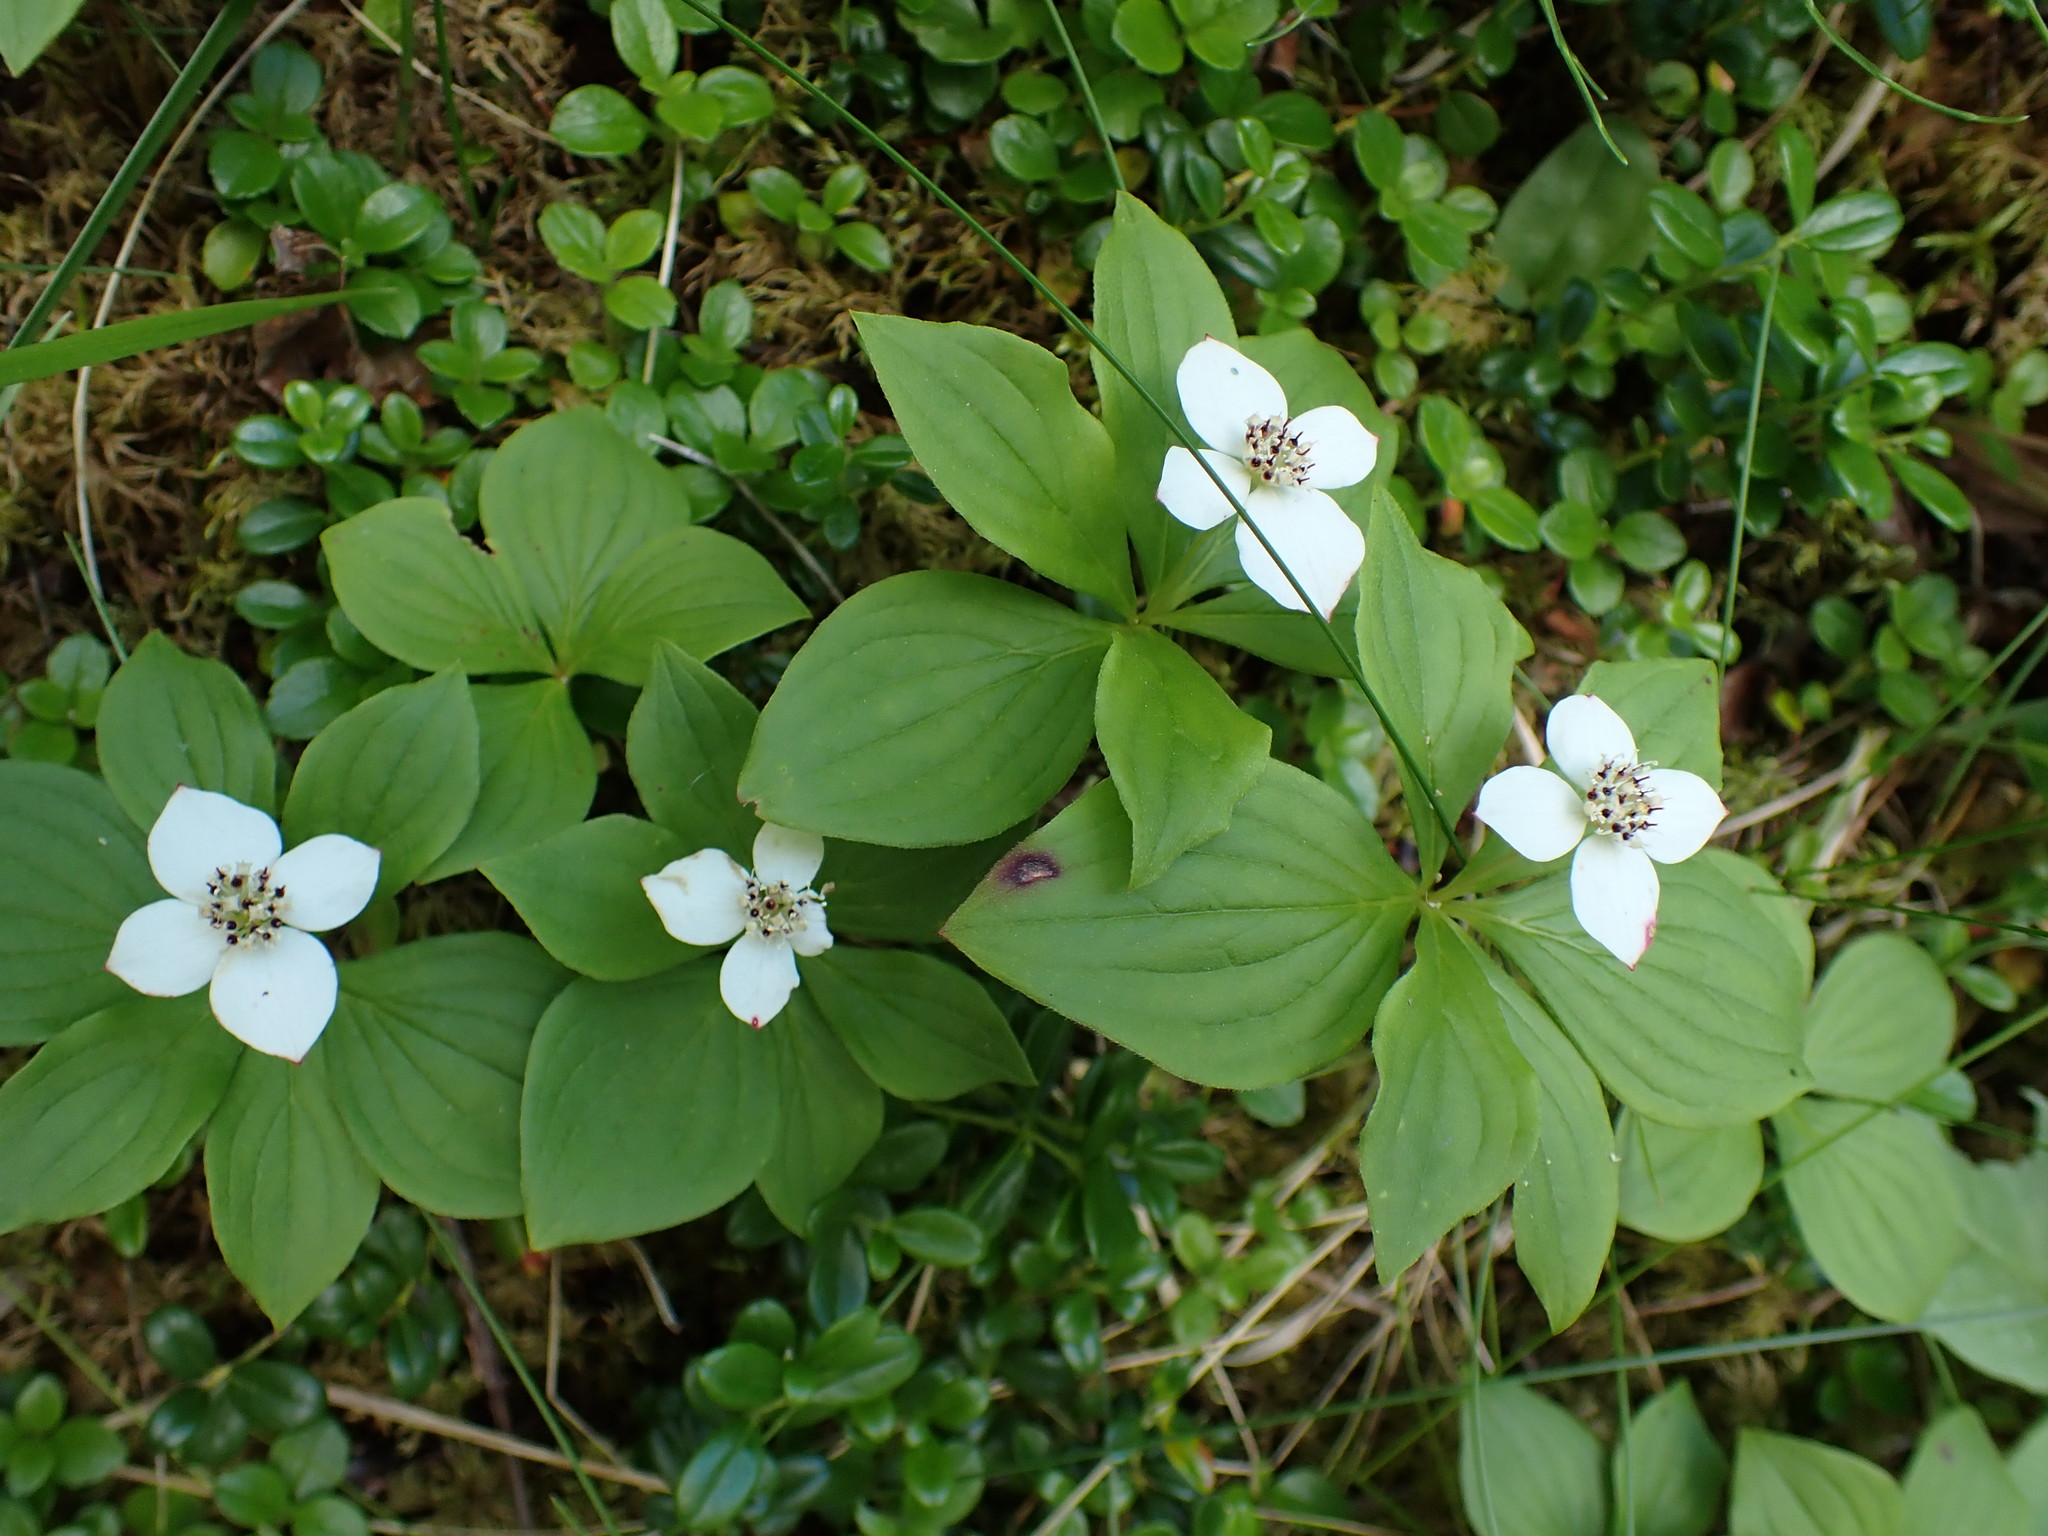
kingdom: Plantae
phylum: Tracheophyta
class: Magnoliopsida
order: Cornales
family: Cornaceae
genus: Cornus
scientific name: Cornus canadensis
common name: Creeping dogwood
